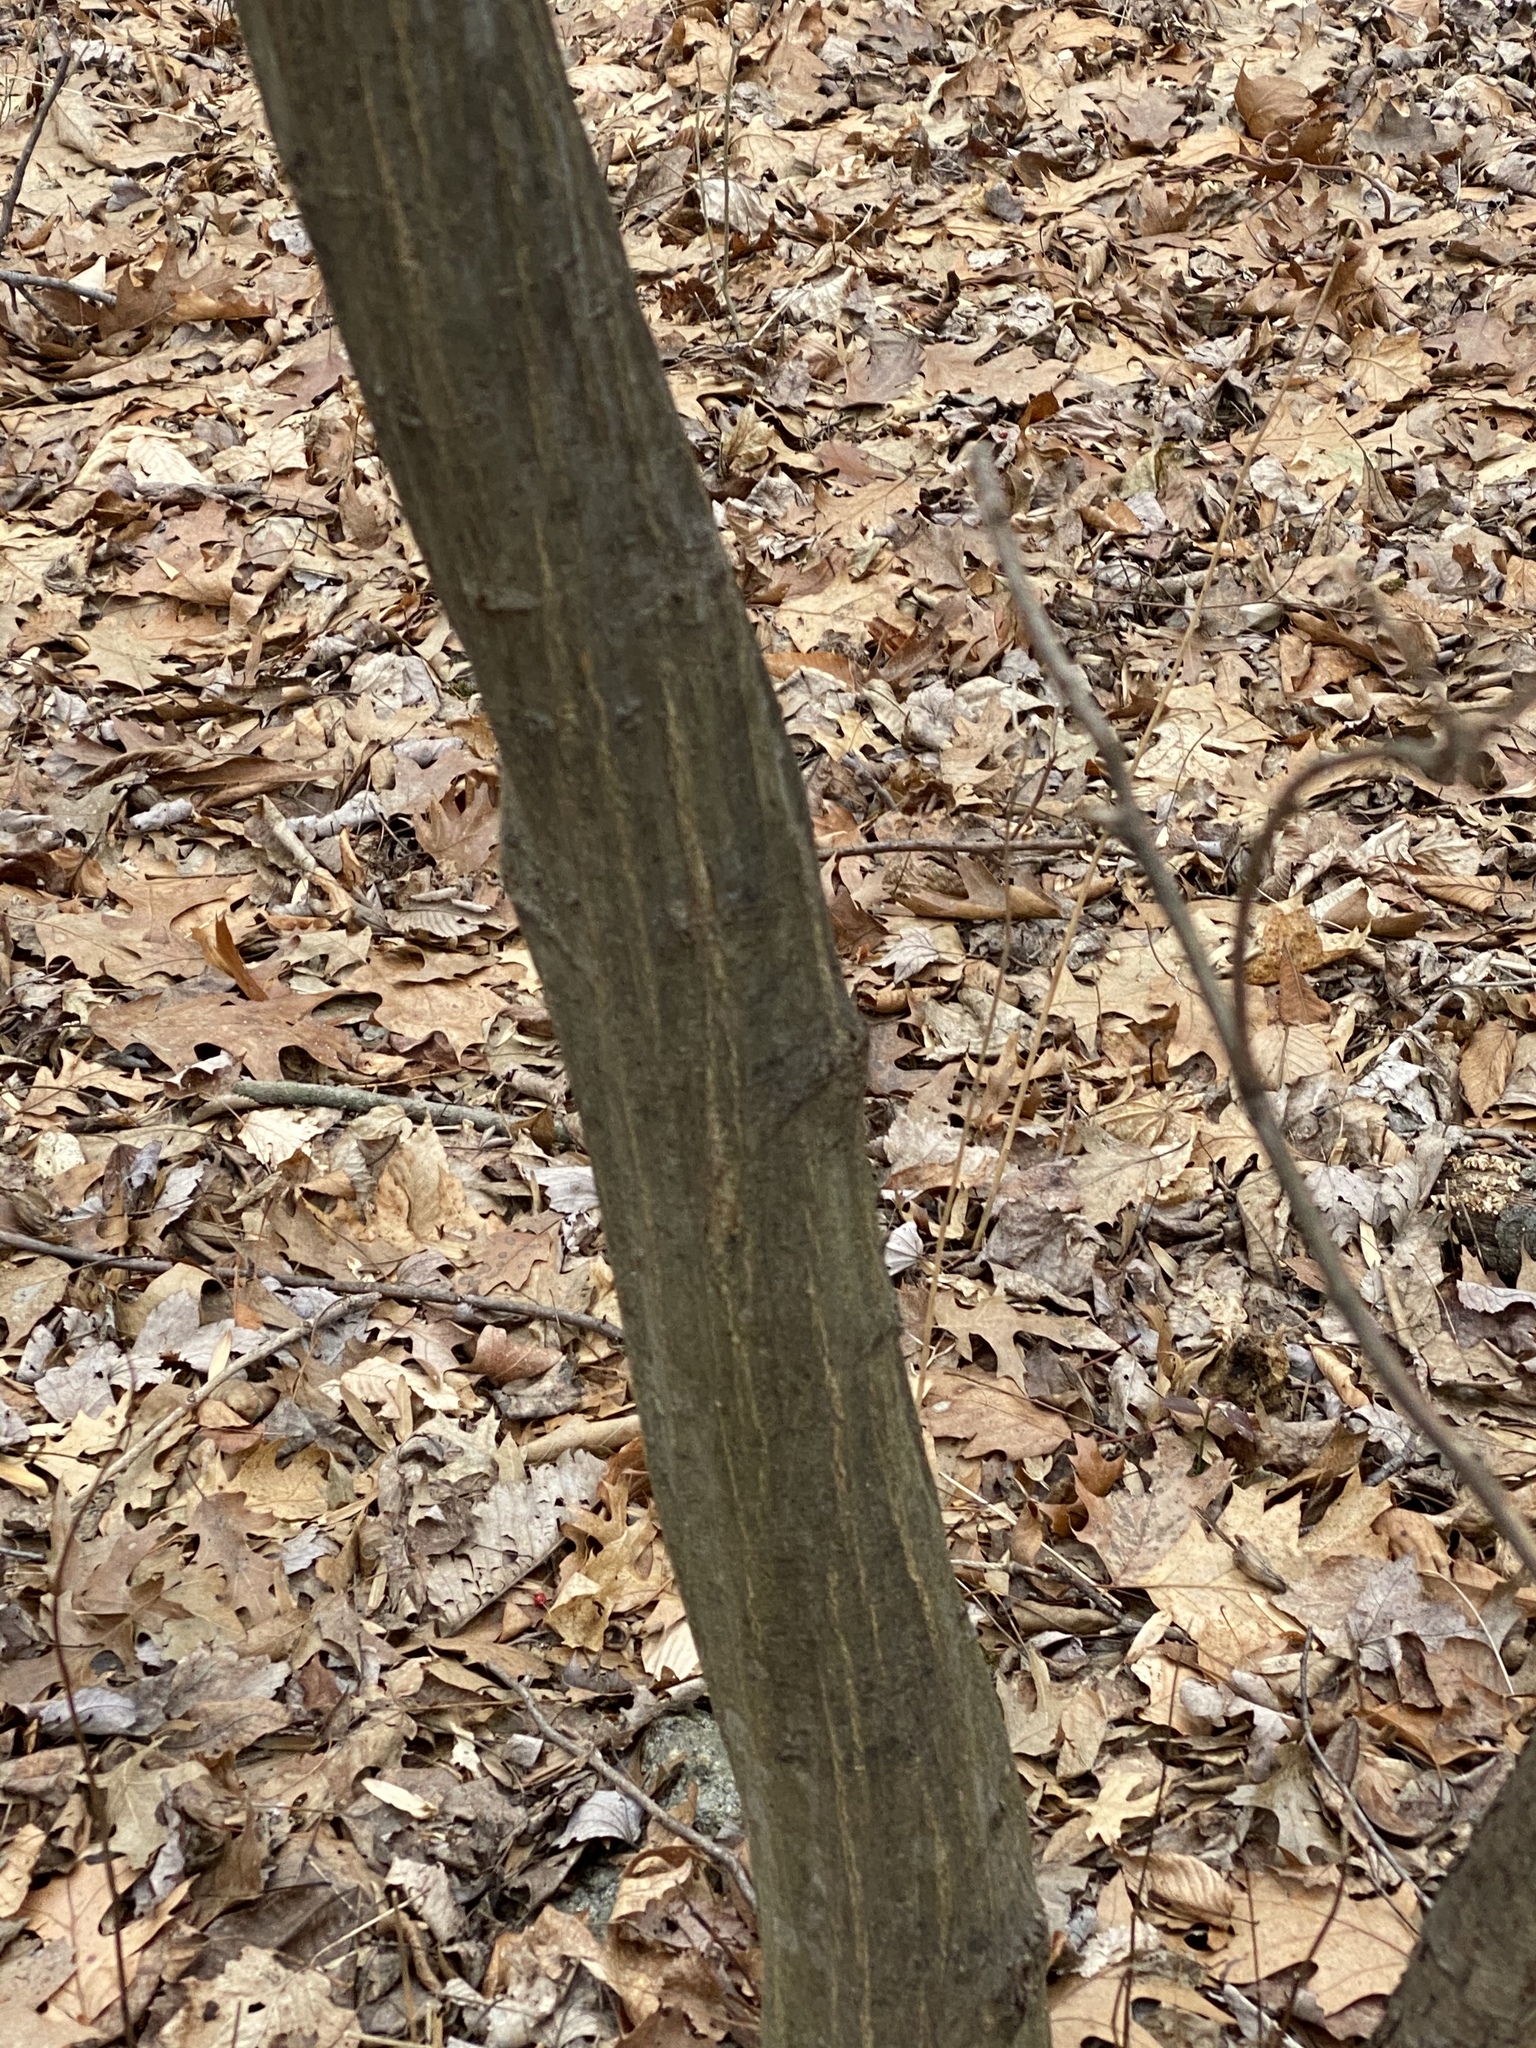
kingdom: Plantae
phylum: Tracheophyta
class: Magnoliopsida
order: Fagales
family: Betulaceae
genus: Carpinus
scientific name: Carpinus caroliniana
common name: American hornbeam
